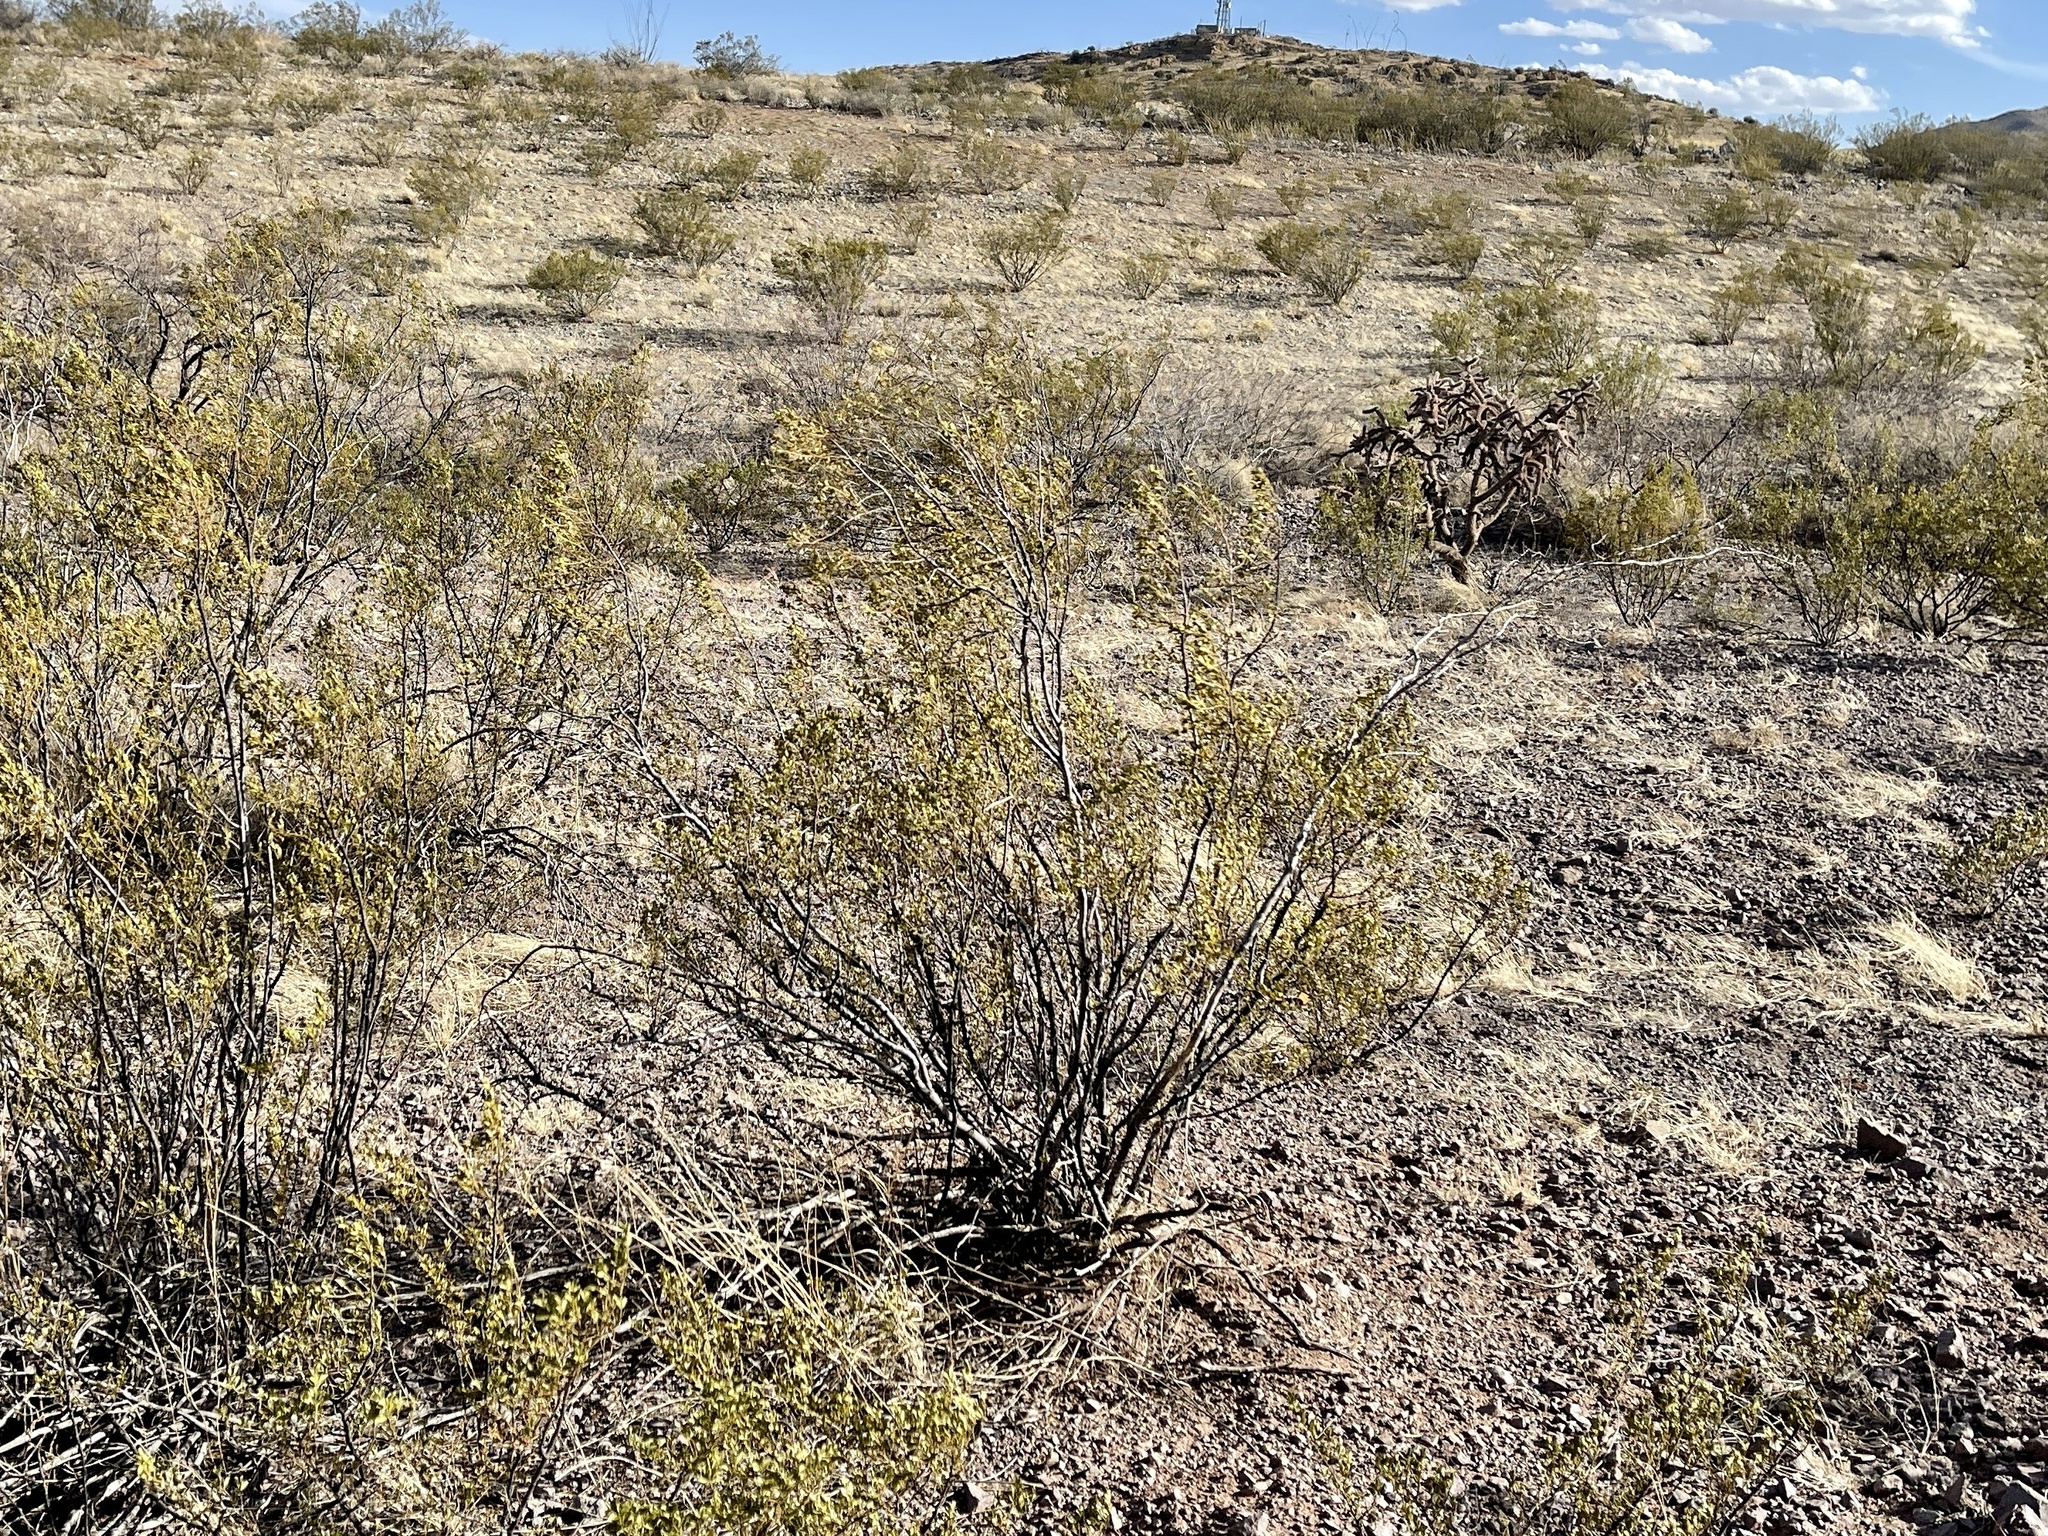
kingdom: Plantae
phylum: Tracheophyta
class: Magnoliopsida
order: Zygophyllales
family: Zygophyllaceae
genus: Larrea
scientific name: Larrea tridentata
